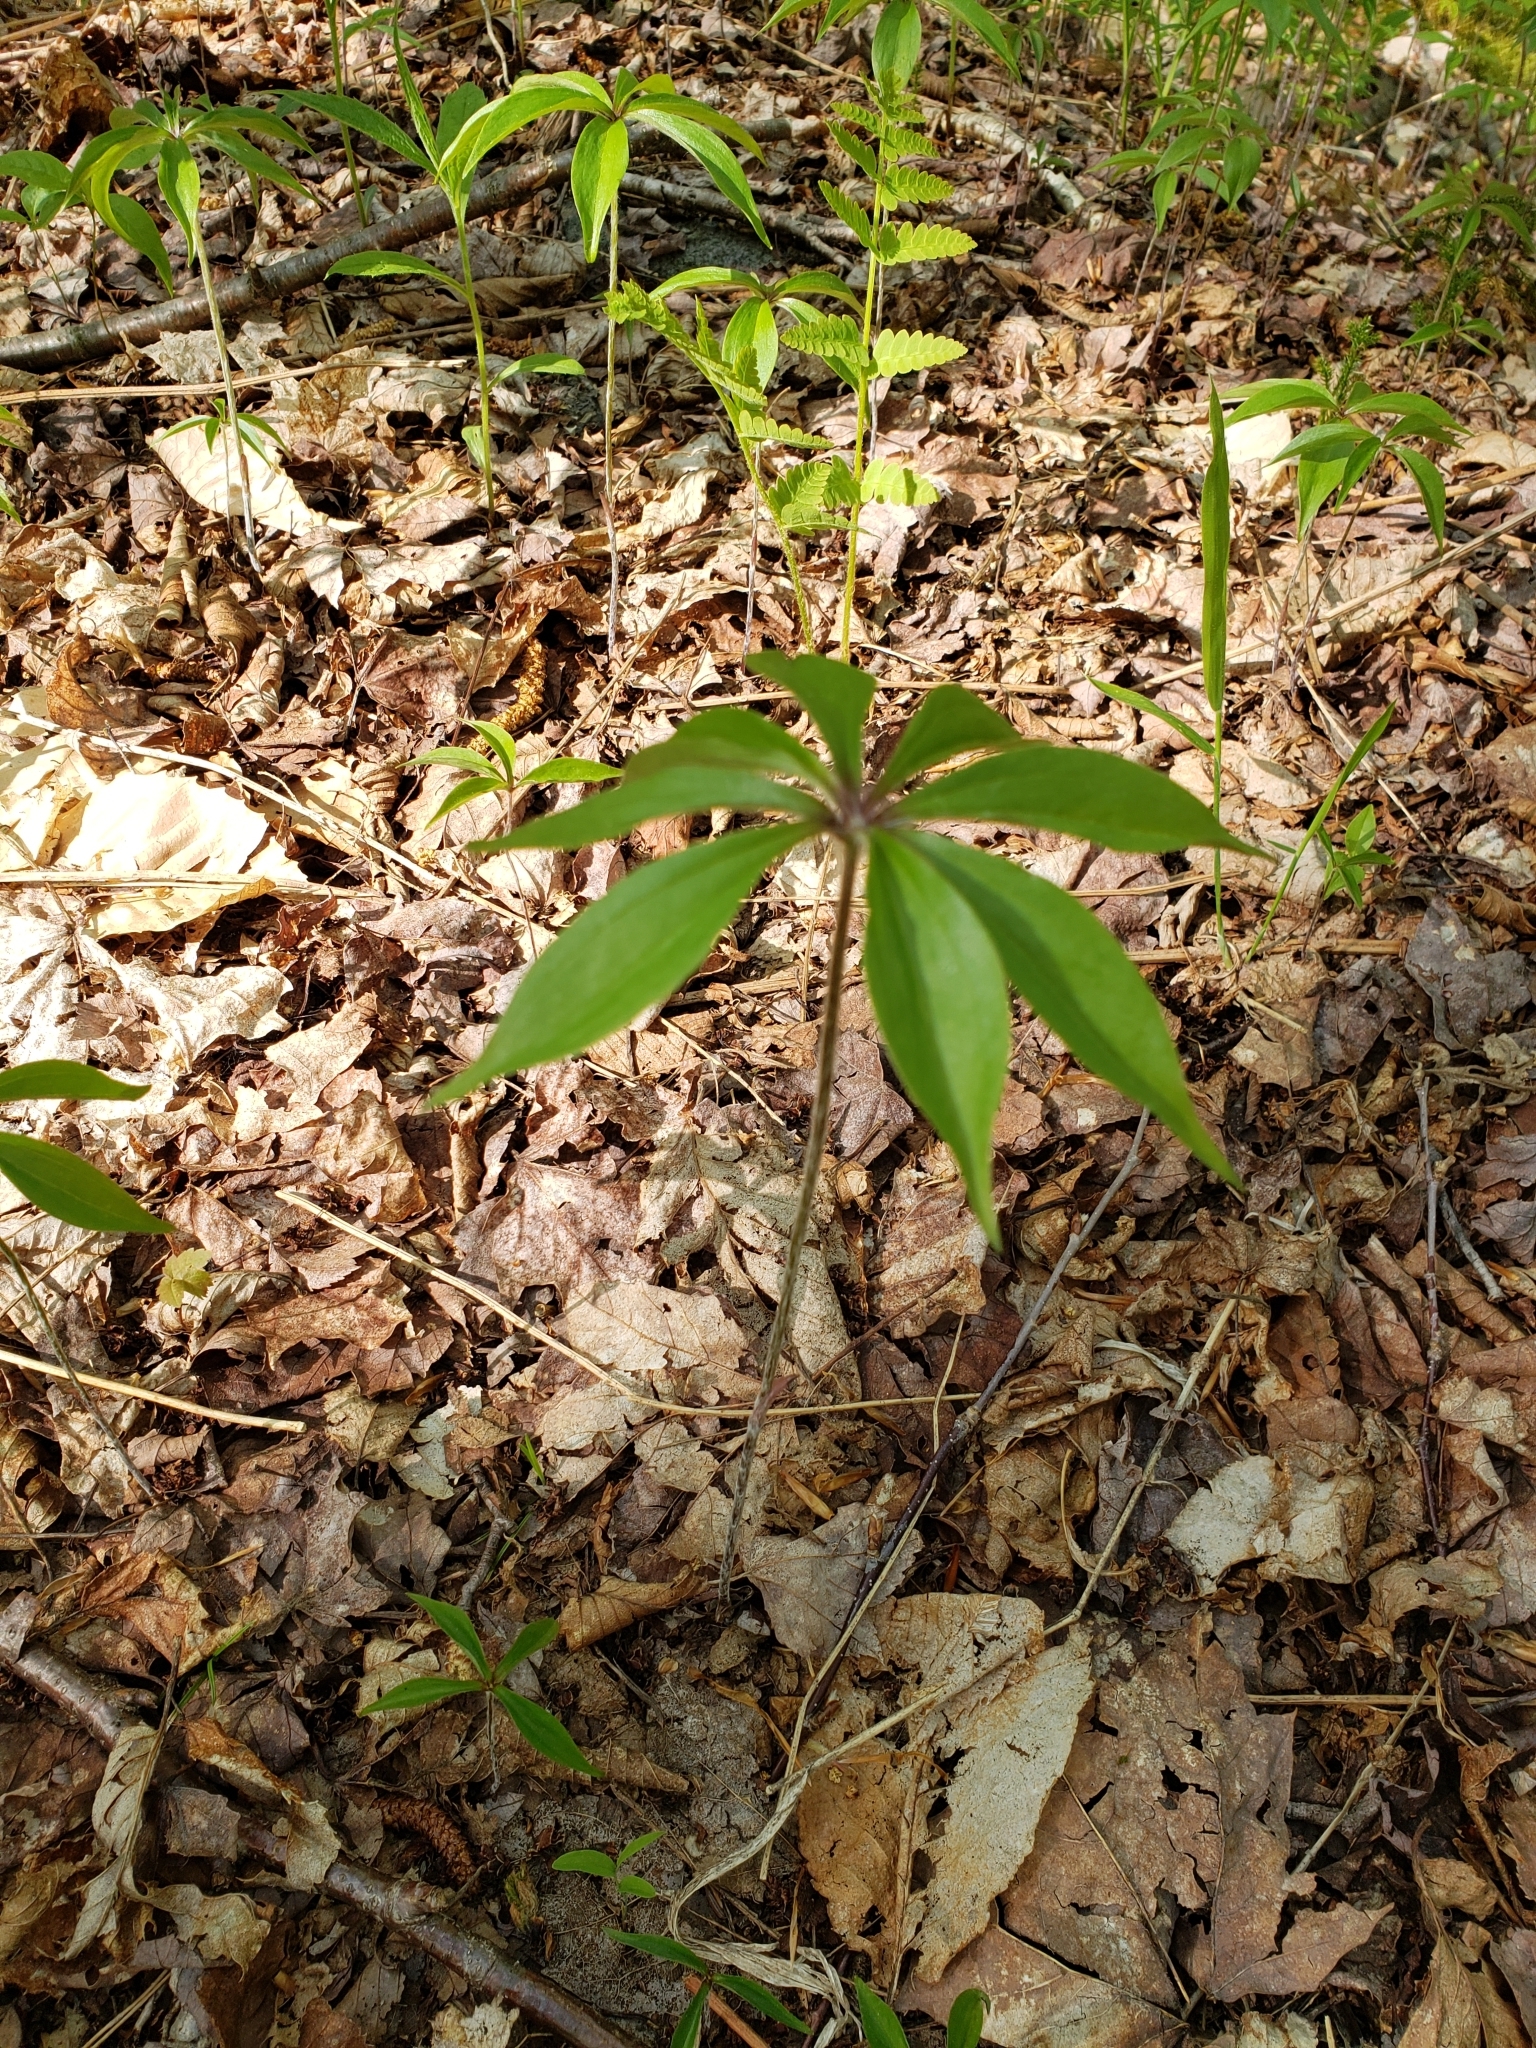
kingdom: Plantae
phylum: Tracheophyta
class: Liliopsida
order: Liliales
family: Liliaceae
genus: Medeola
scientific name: Medeola virginiana
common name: Indian cucumber-root
